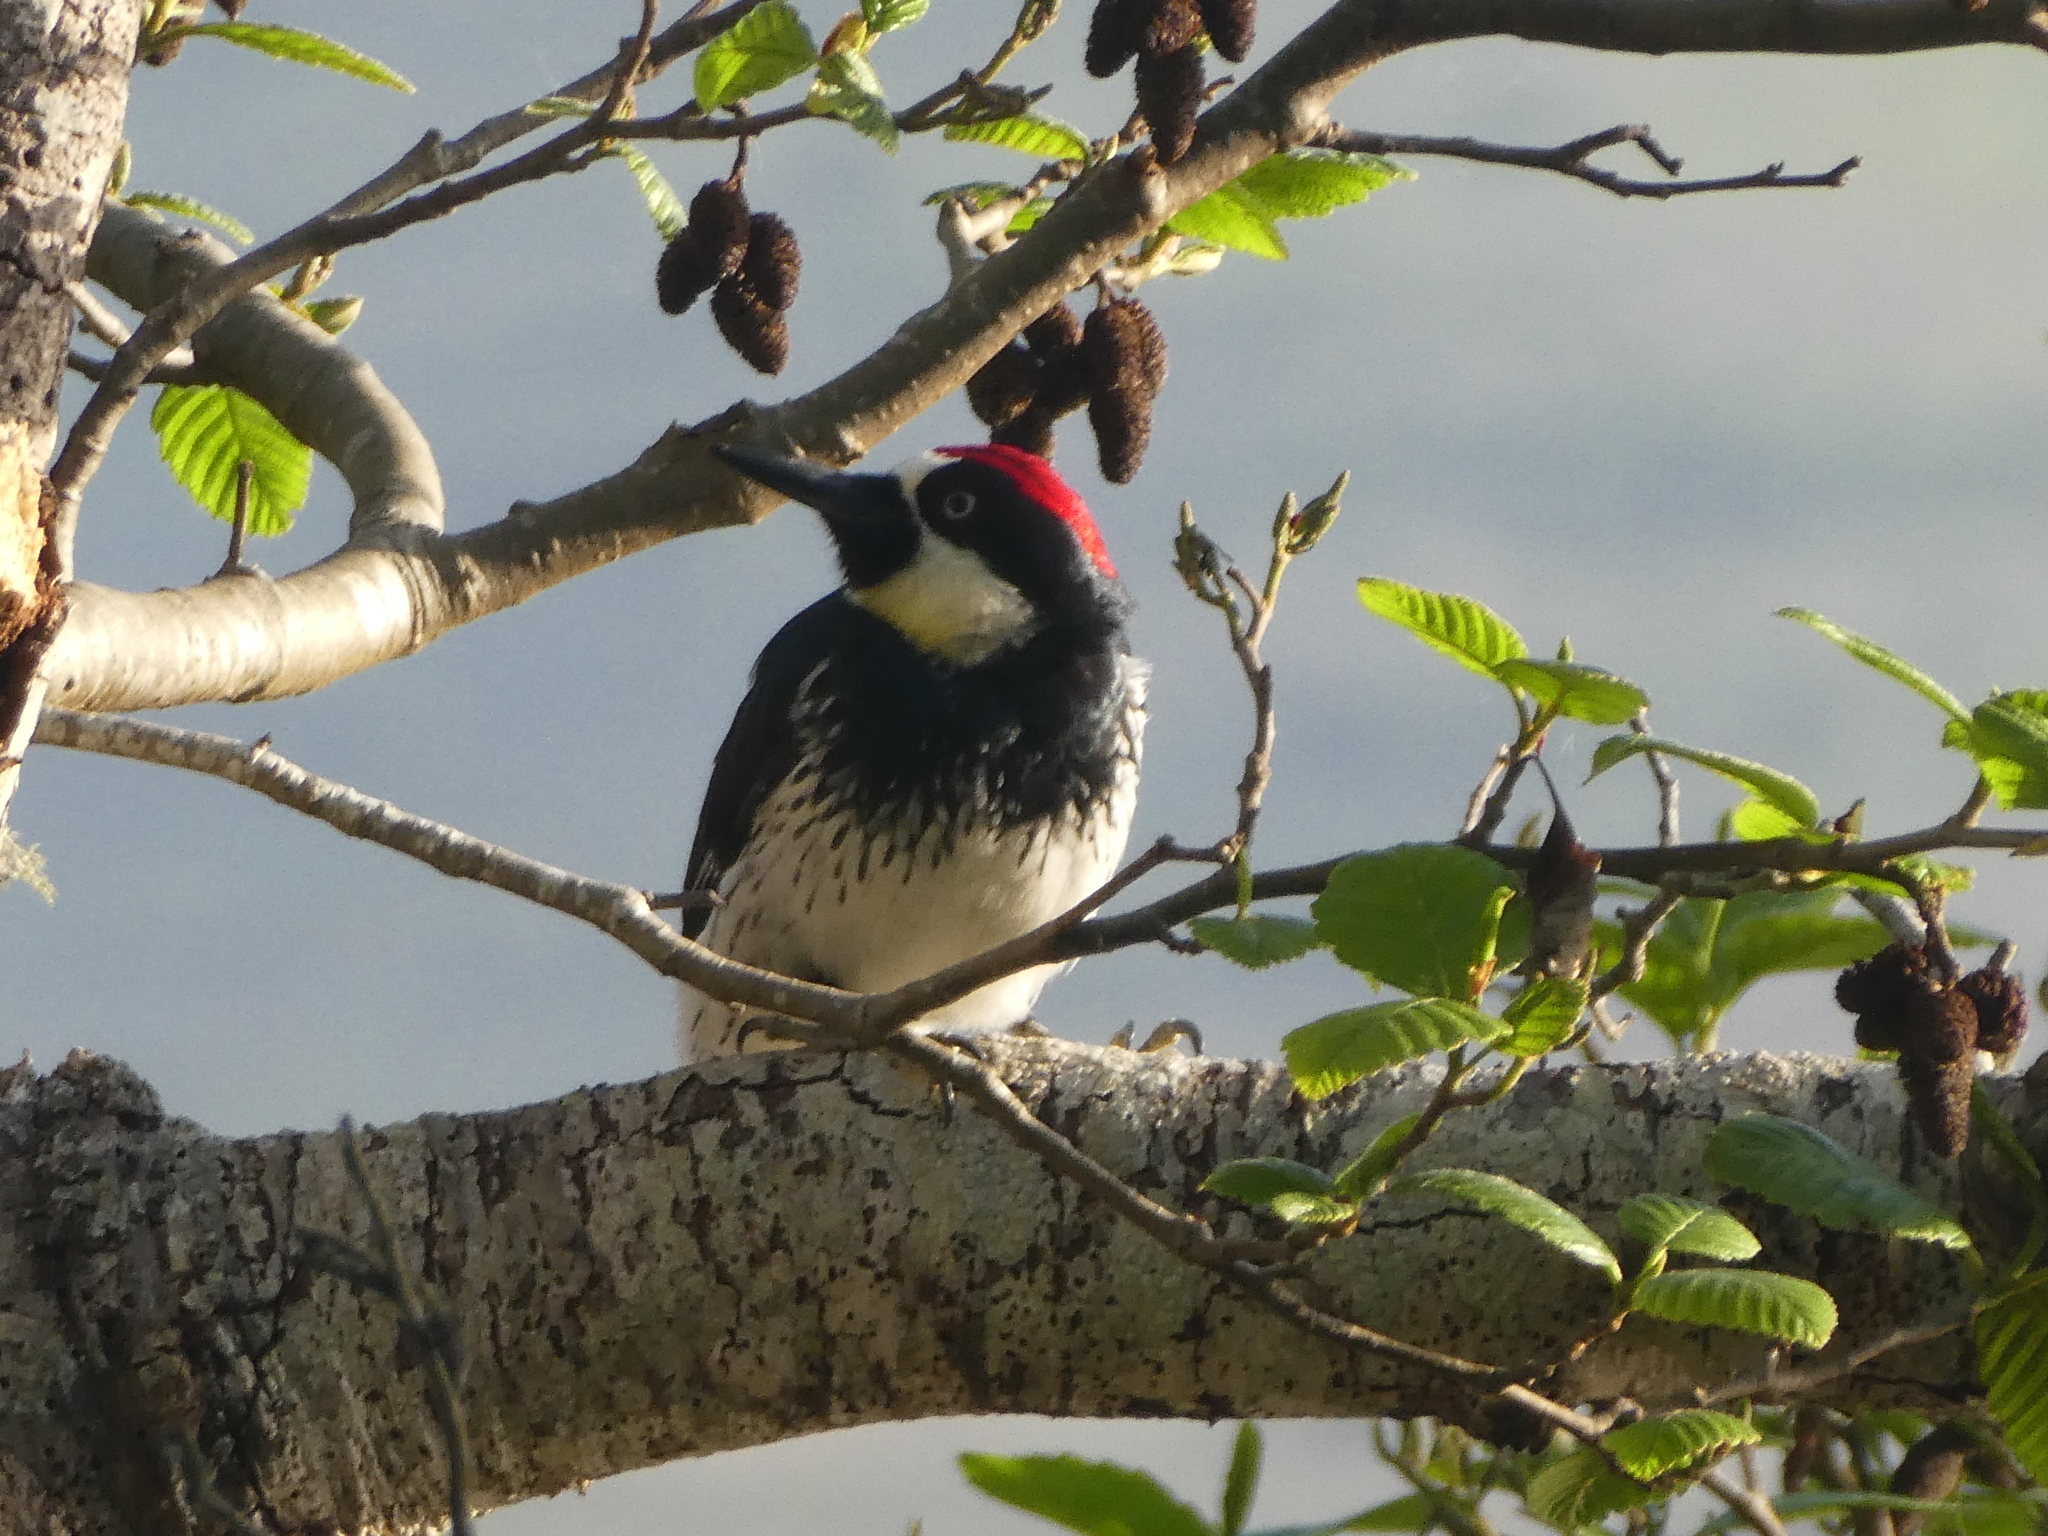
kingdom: Animalia
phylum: Chordata
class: Aves
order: Piciformes
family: Picidae
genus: Melanerpes
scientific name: Melanerpes formicivorus
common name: Acorn woodpecker
